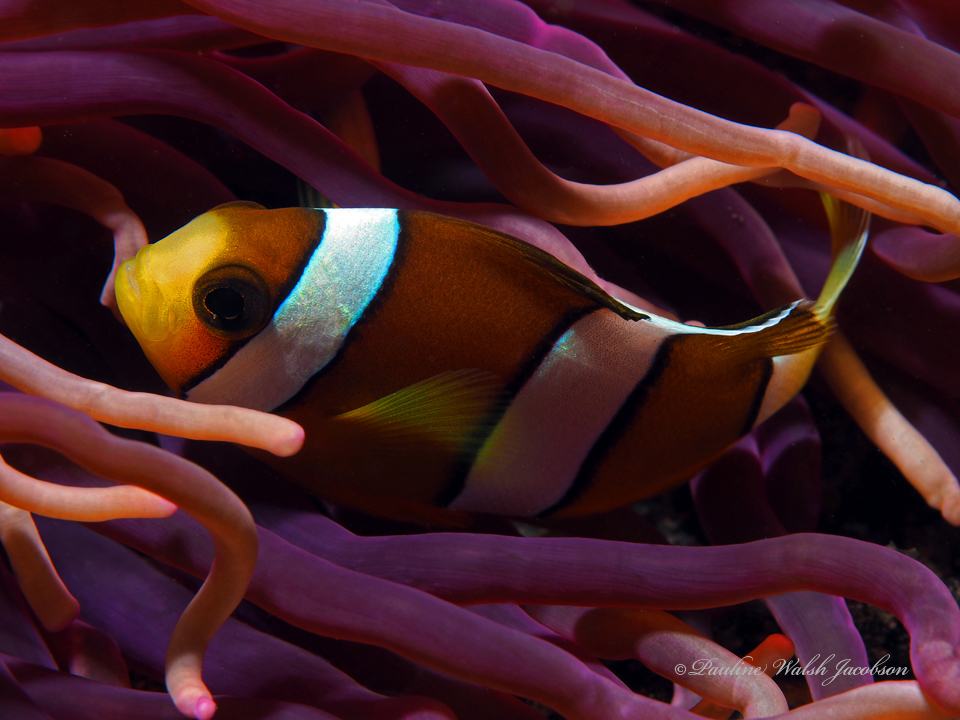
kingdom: Animalia
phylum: Chordata
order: Perciformes
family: Pomacentridae
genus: Amphiprion
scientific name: Amphiprion clarkii
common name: Clark's anemonefish
